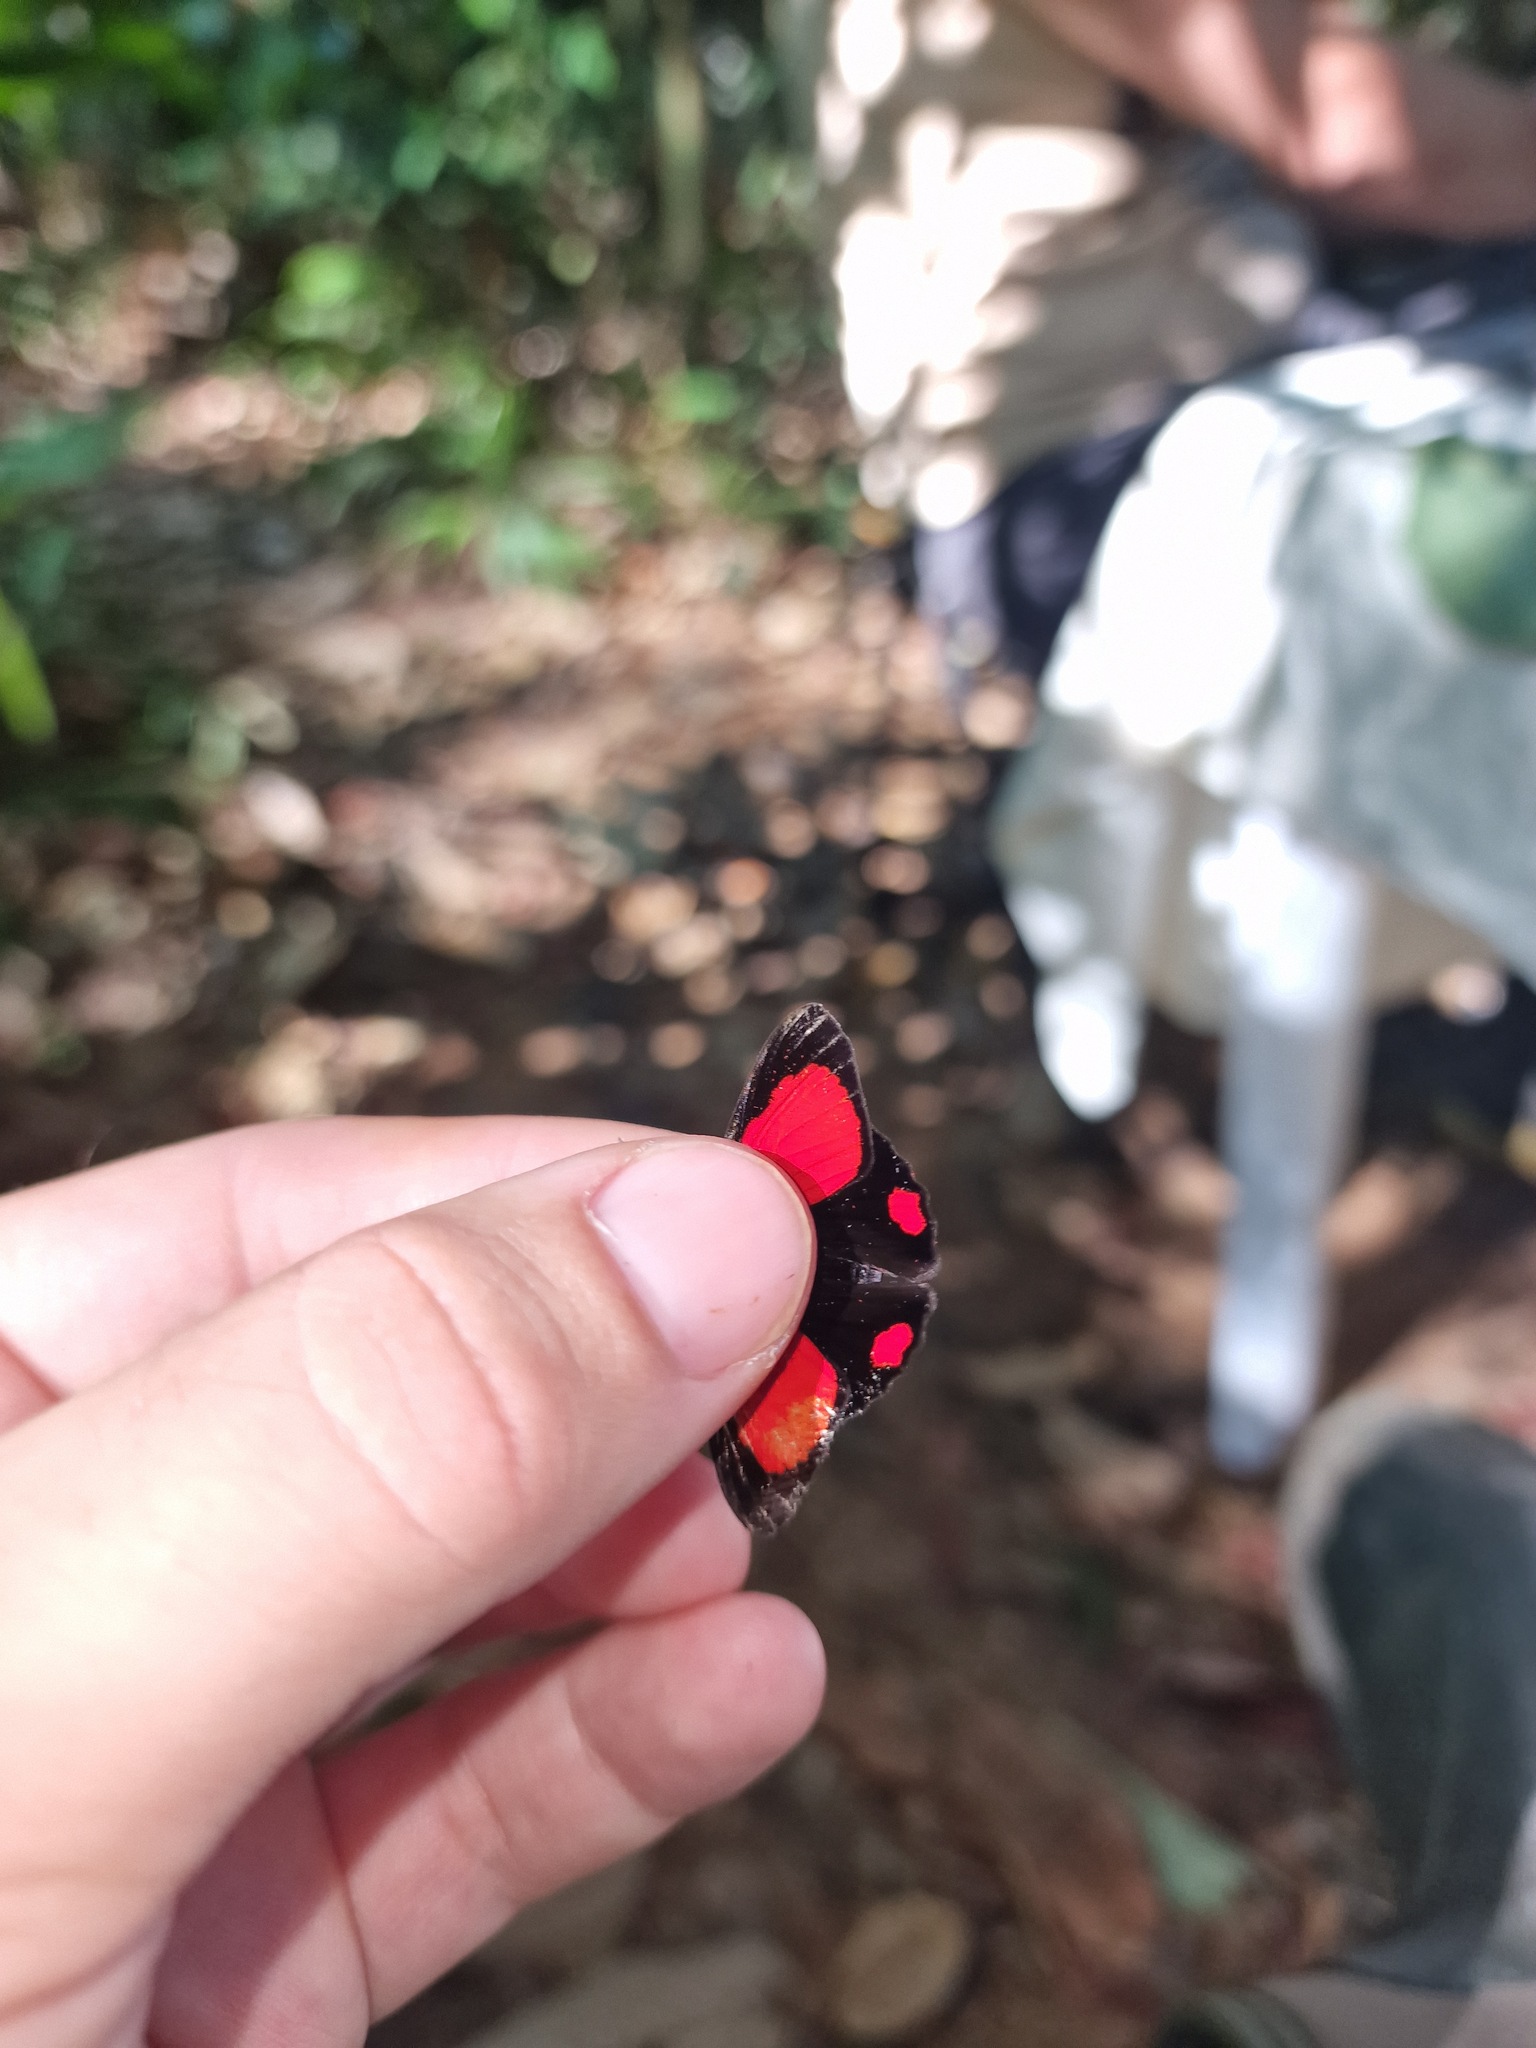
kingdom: Animalia
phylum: Arthropoda
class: Insecta
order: Lepidoptera
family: Lycaenidae
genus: Euselasia
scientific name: Euselasia zena
